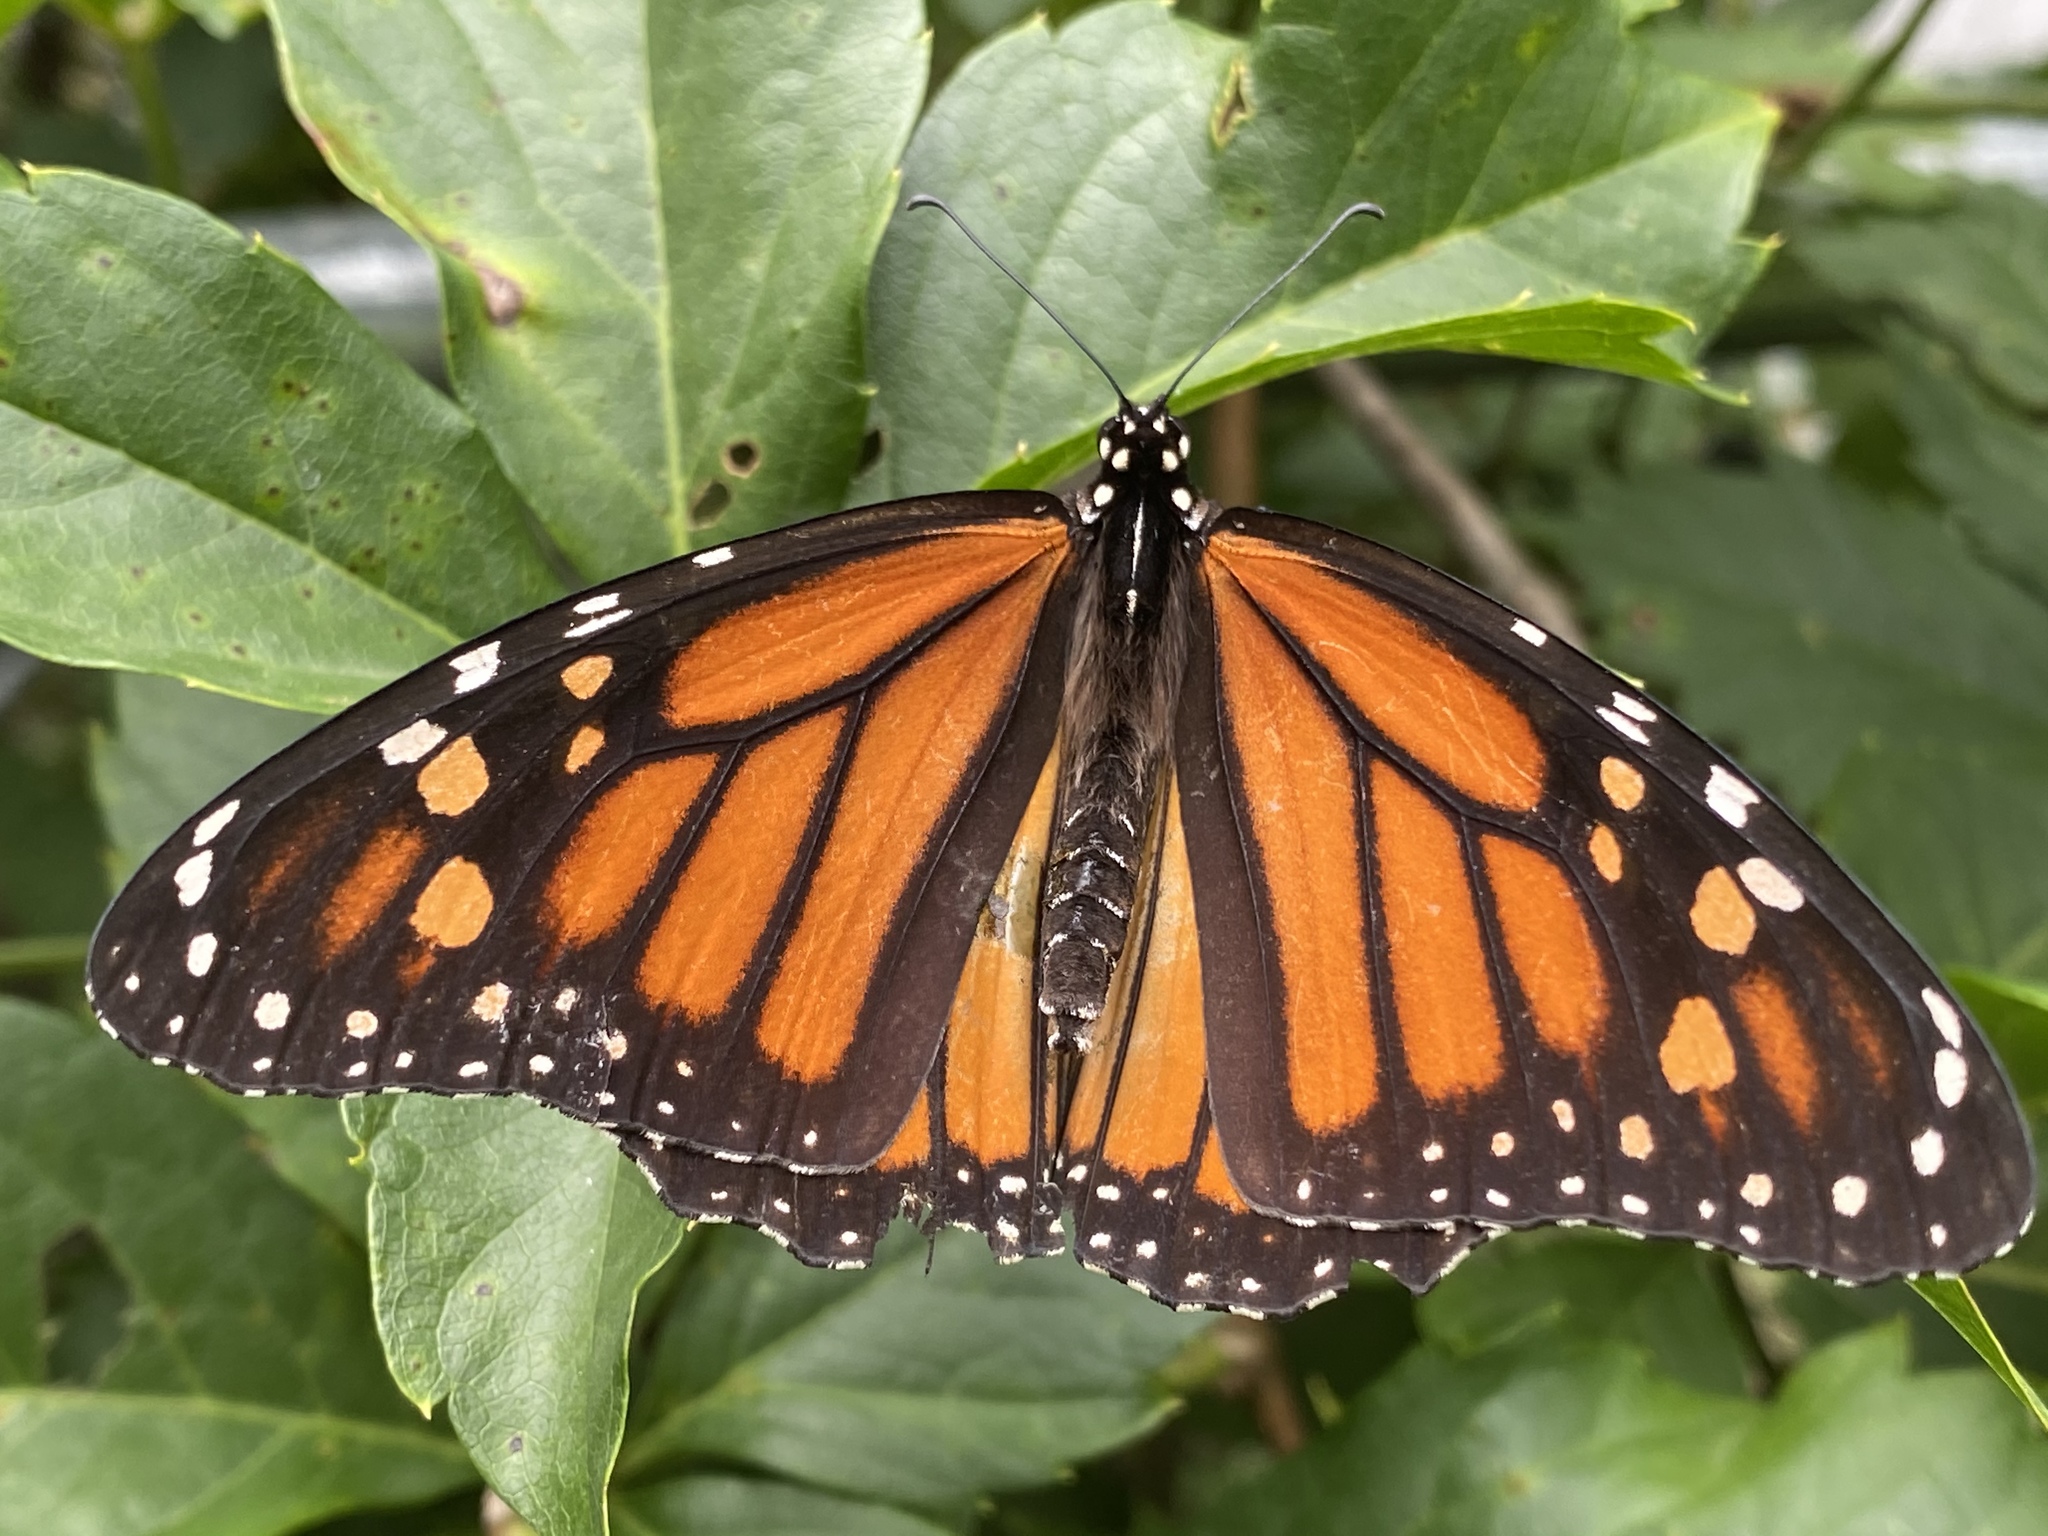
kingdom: Animalia
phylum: Arthropoda
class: Insecta
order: Lepidoptera
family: Nymphalidae
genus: Danaus
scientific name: Danaus plexippus
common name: Monarch
